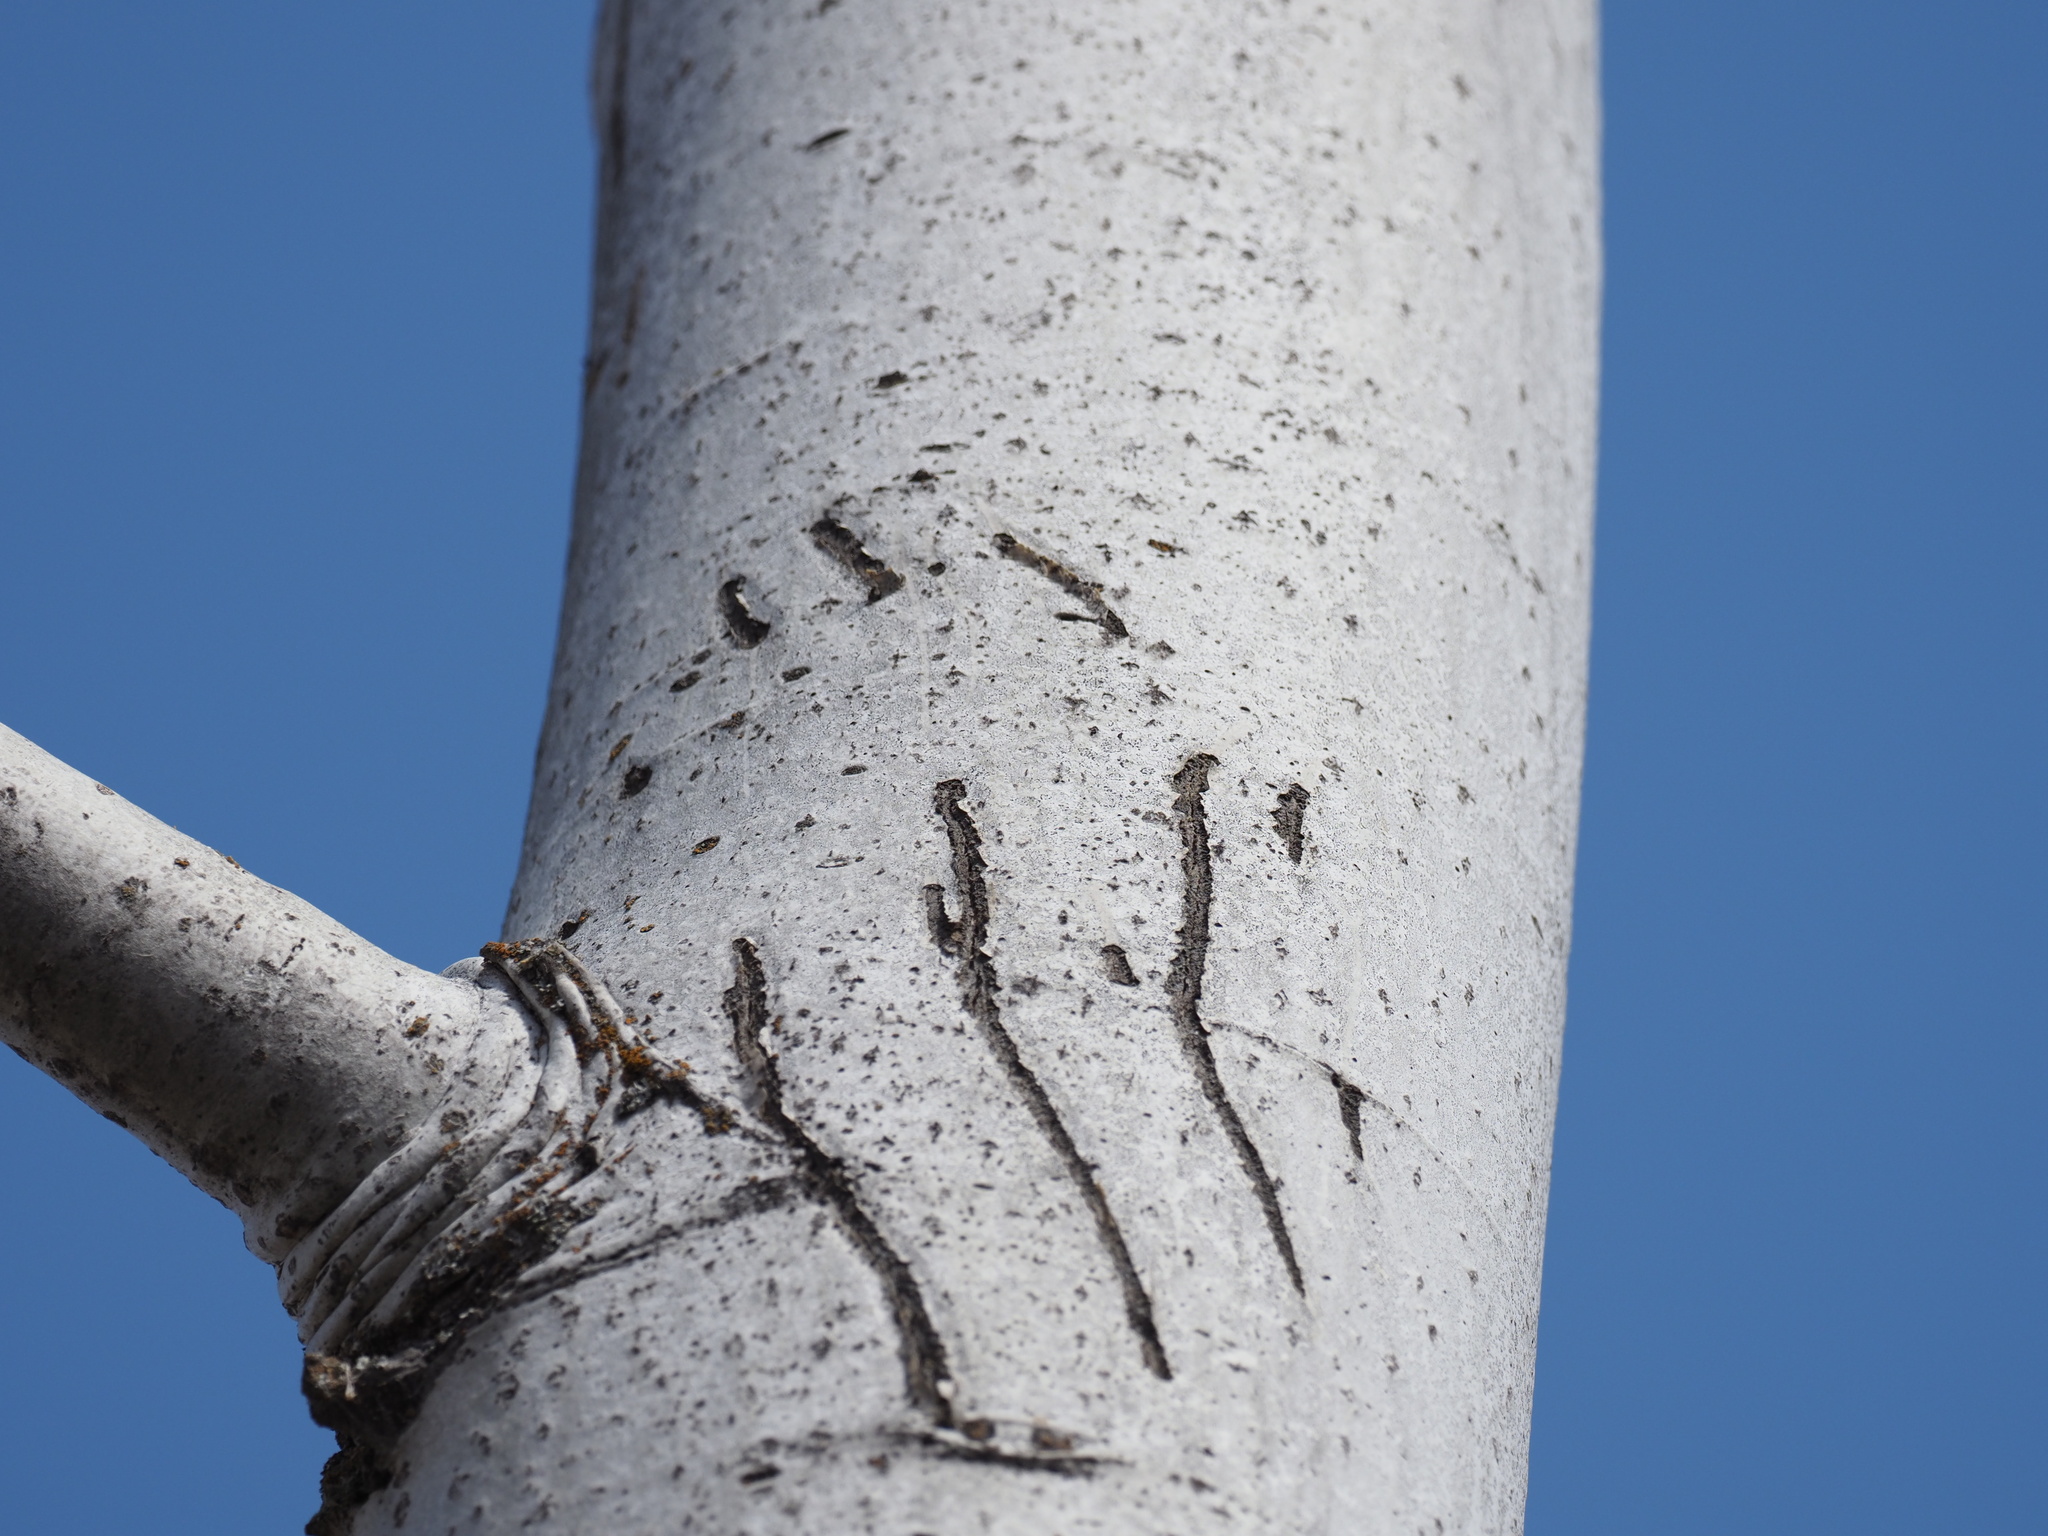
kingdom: Animalia
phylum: Chordata
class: Mammalia
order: Carnivora
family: Ursidae
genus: Ursus
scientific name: Ursus americanus
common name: American black bear
